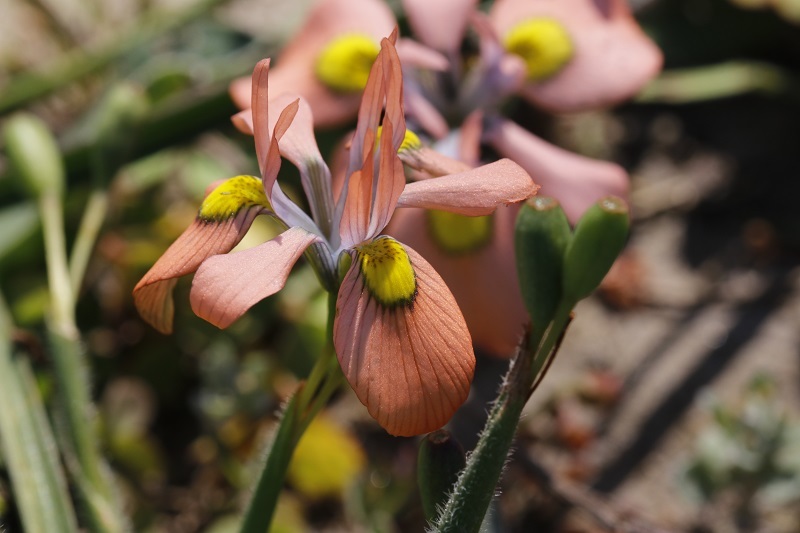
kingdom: Plantae
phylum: Tracheophyta
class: Liliopsida
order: Asparagales
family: Iridaceae
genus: Moraea
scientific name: Moraea papilionacea
